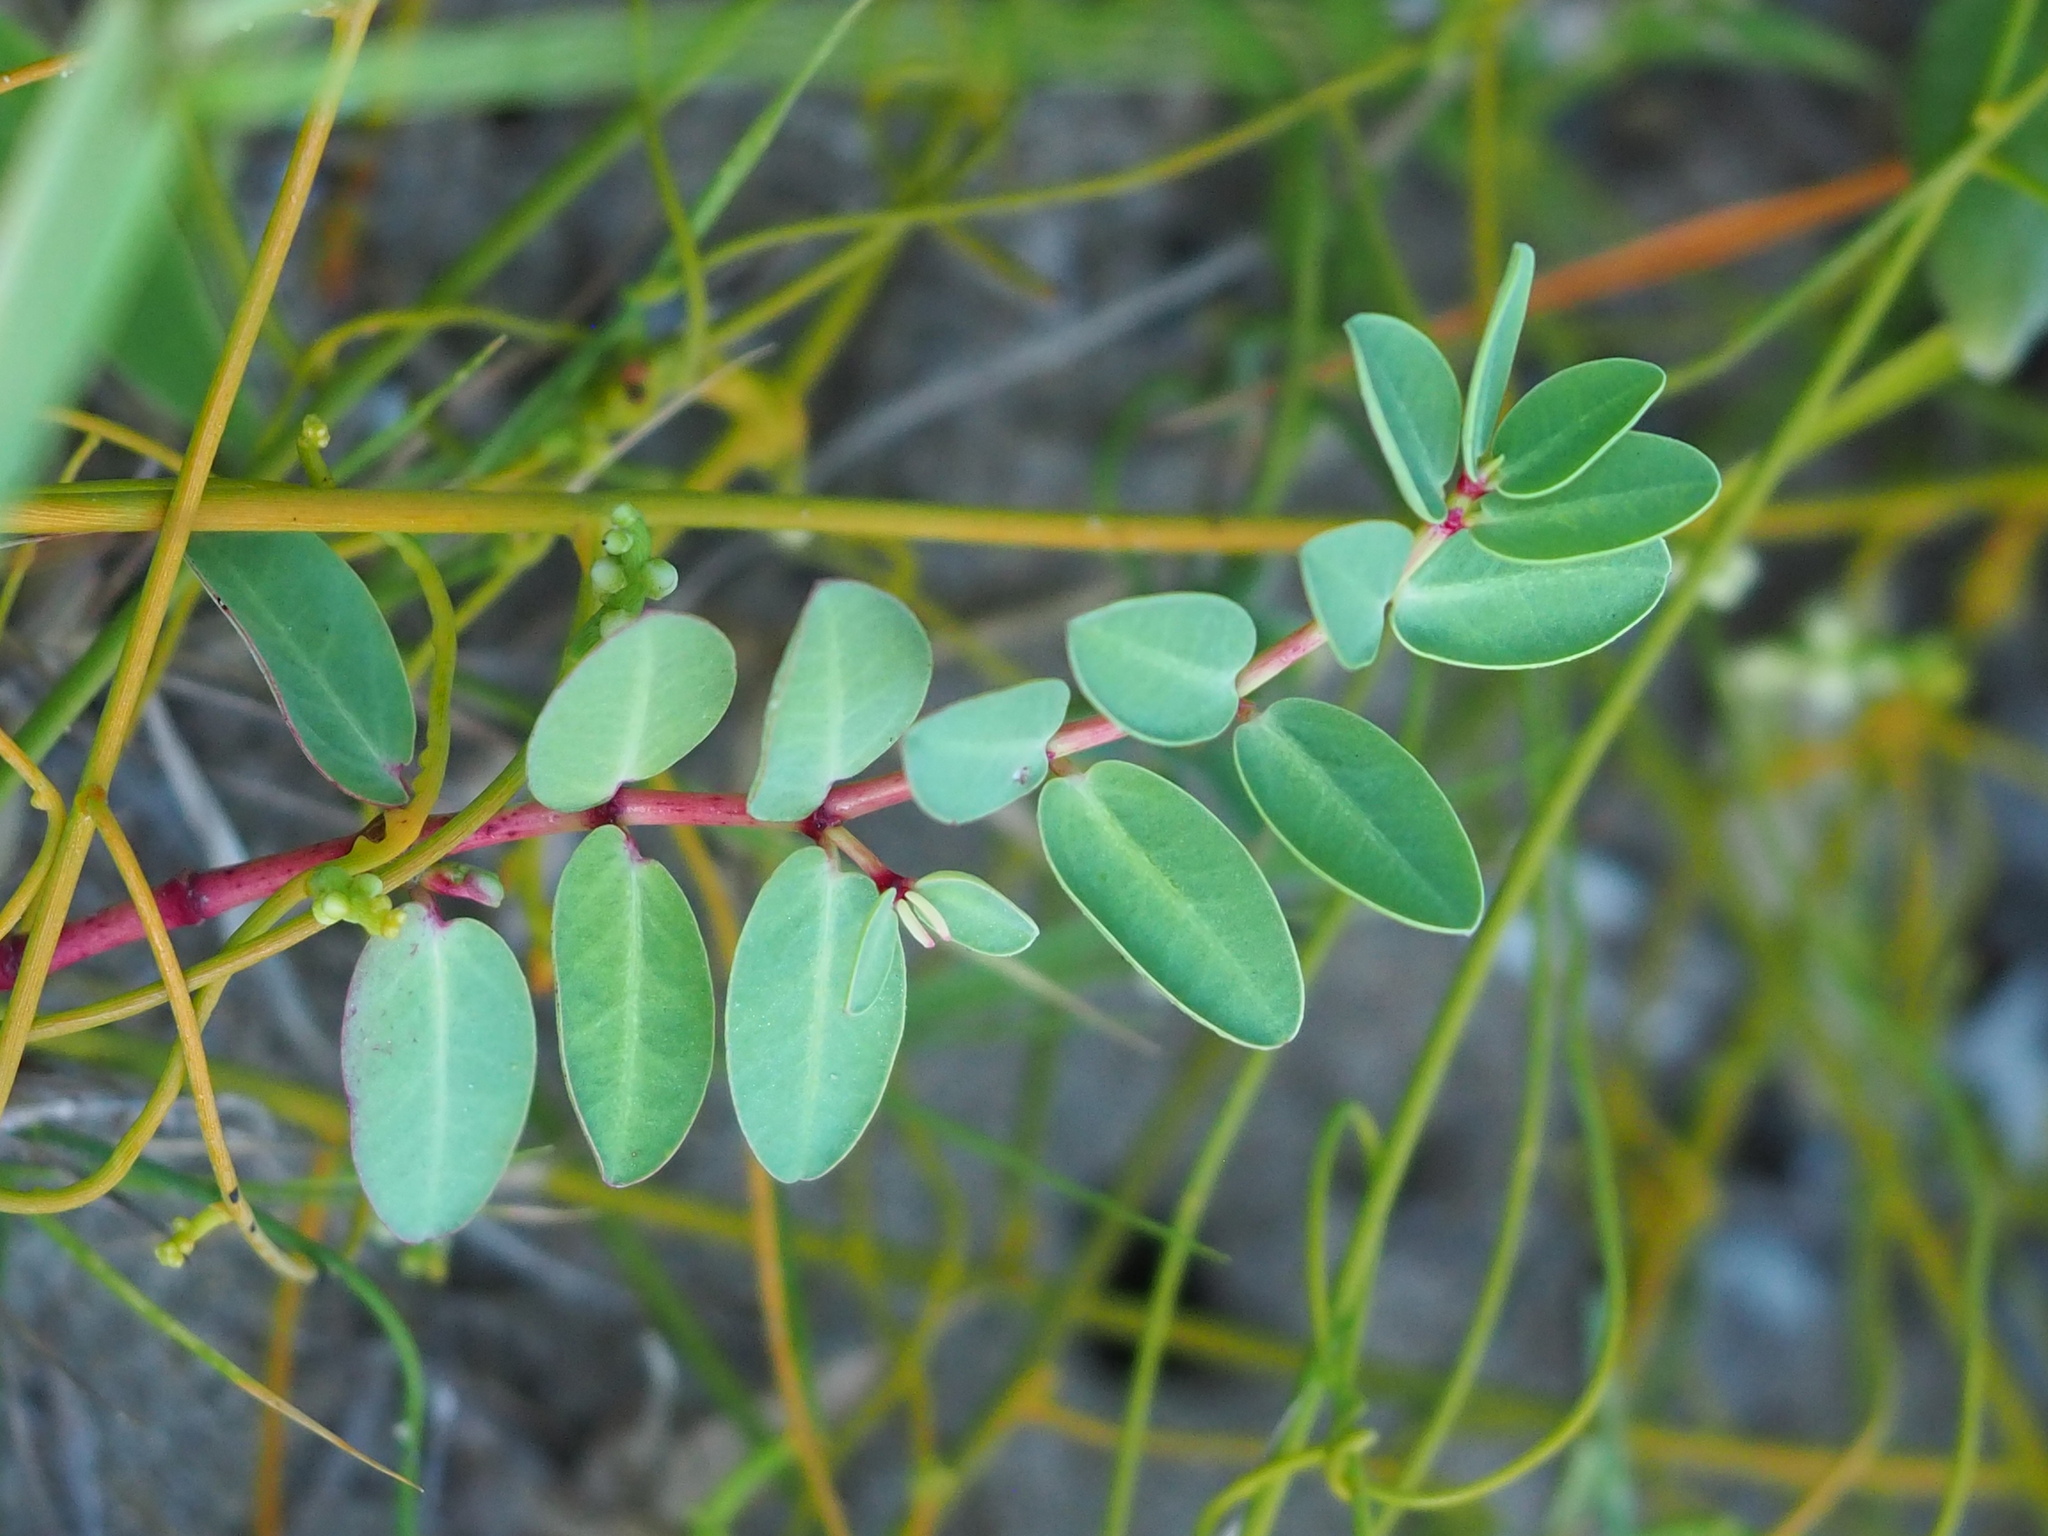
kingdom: Plantae
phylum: Tracheophyta
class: Magnoliopsida
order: Malpighiales
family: Euphorbiaceae
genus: Euphorbia
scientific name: Euphorbia atoto
